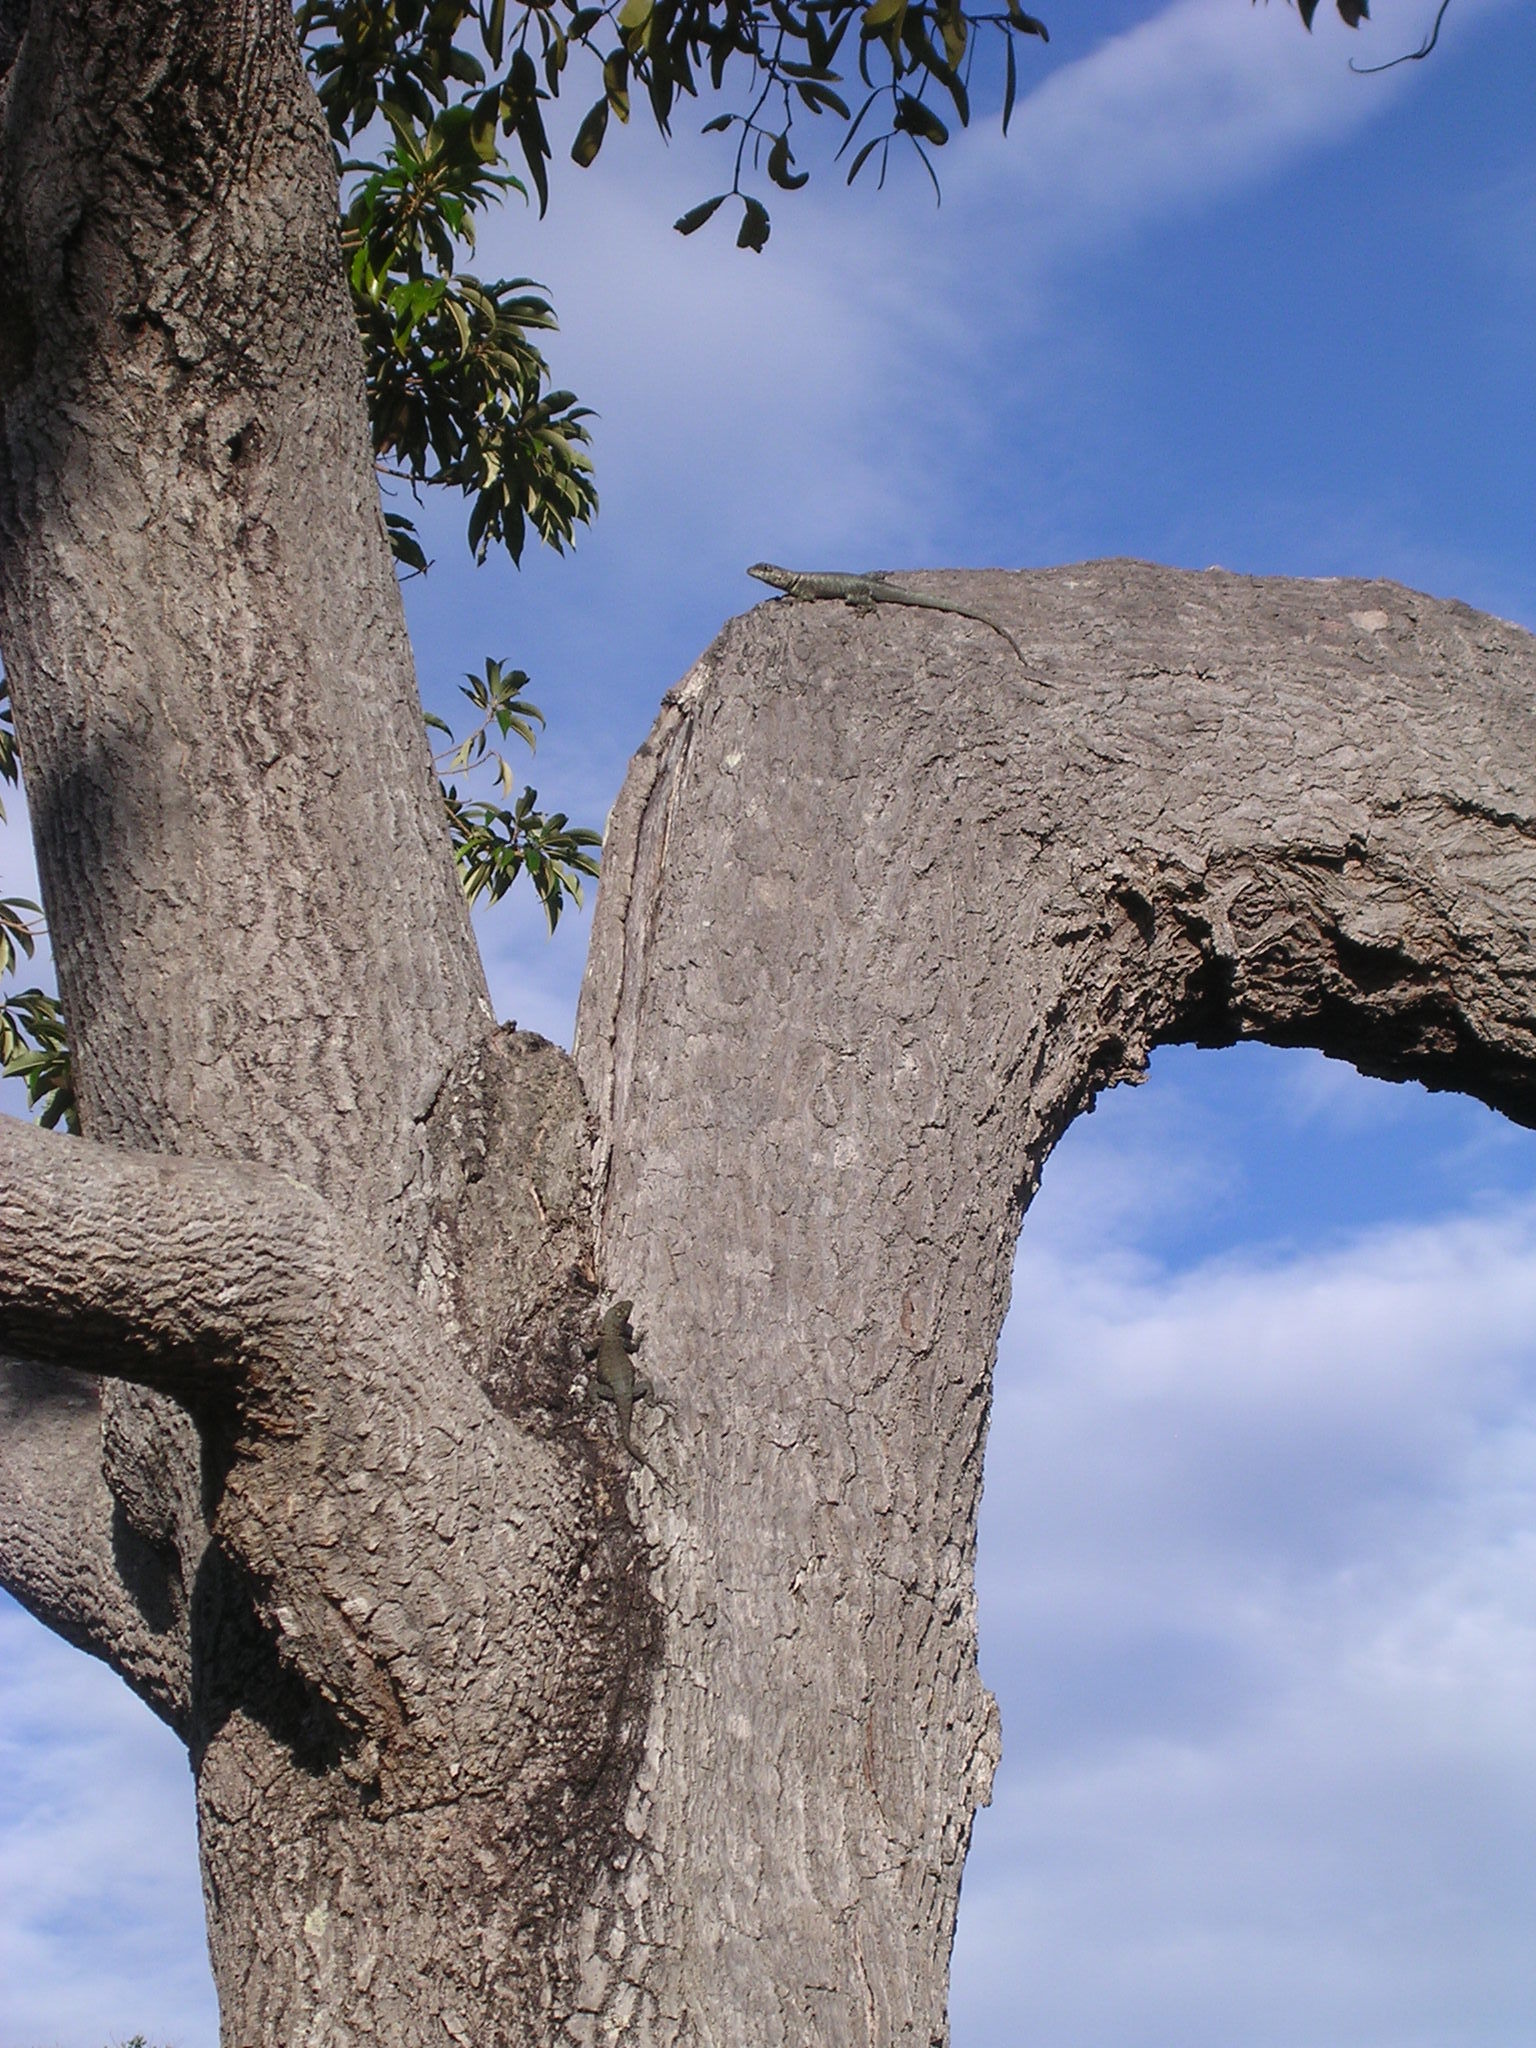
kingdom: Animalia
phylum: Chordata
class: Squamata
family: Tropiduridae
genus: Tropidurus
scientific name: Tropidurus hispidus
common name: Peters' lava lizard
